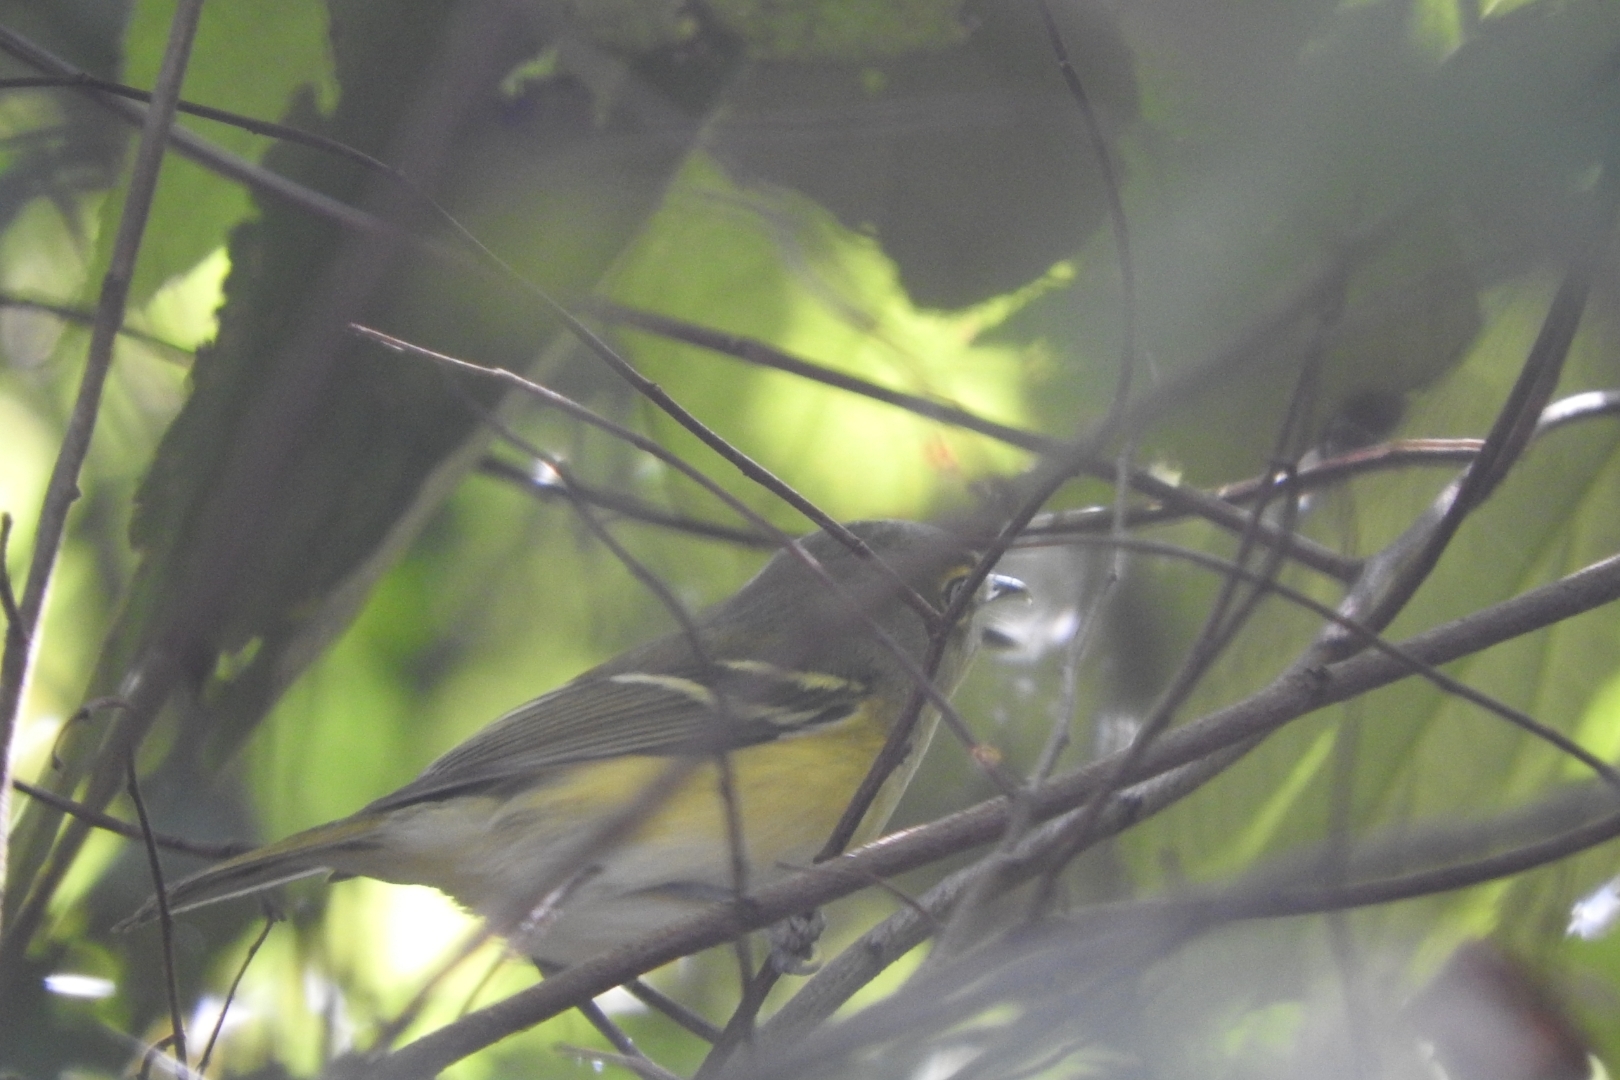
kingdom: Animalia
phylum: Chordata
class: Aves
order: Passeriformes
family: Vireonidae
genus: Vireo
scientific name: Vireo griseus
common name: White-eyed vireo
